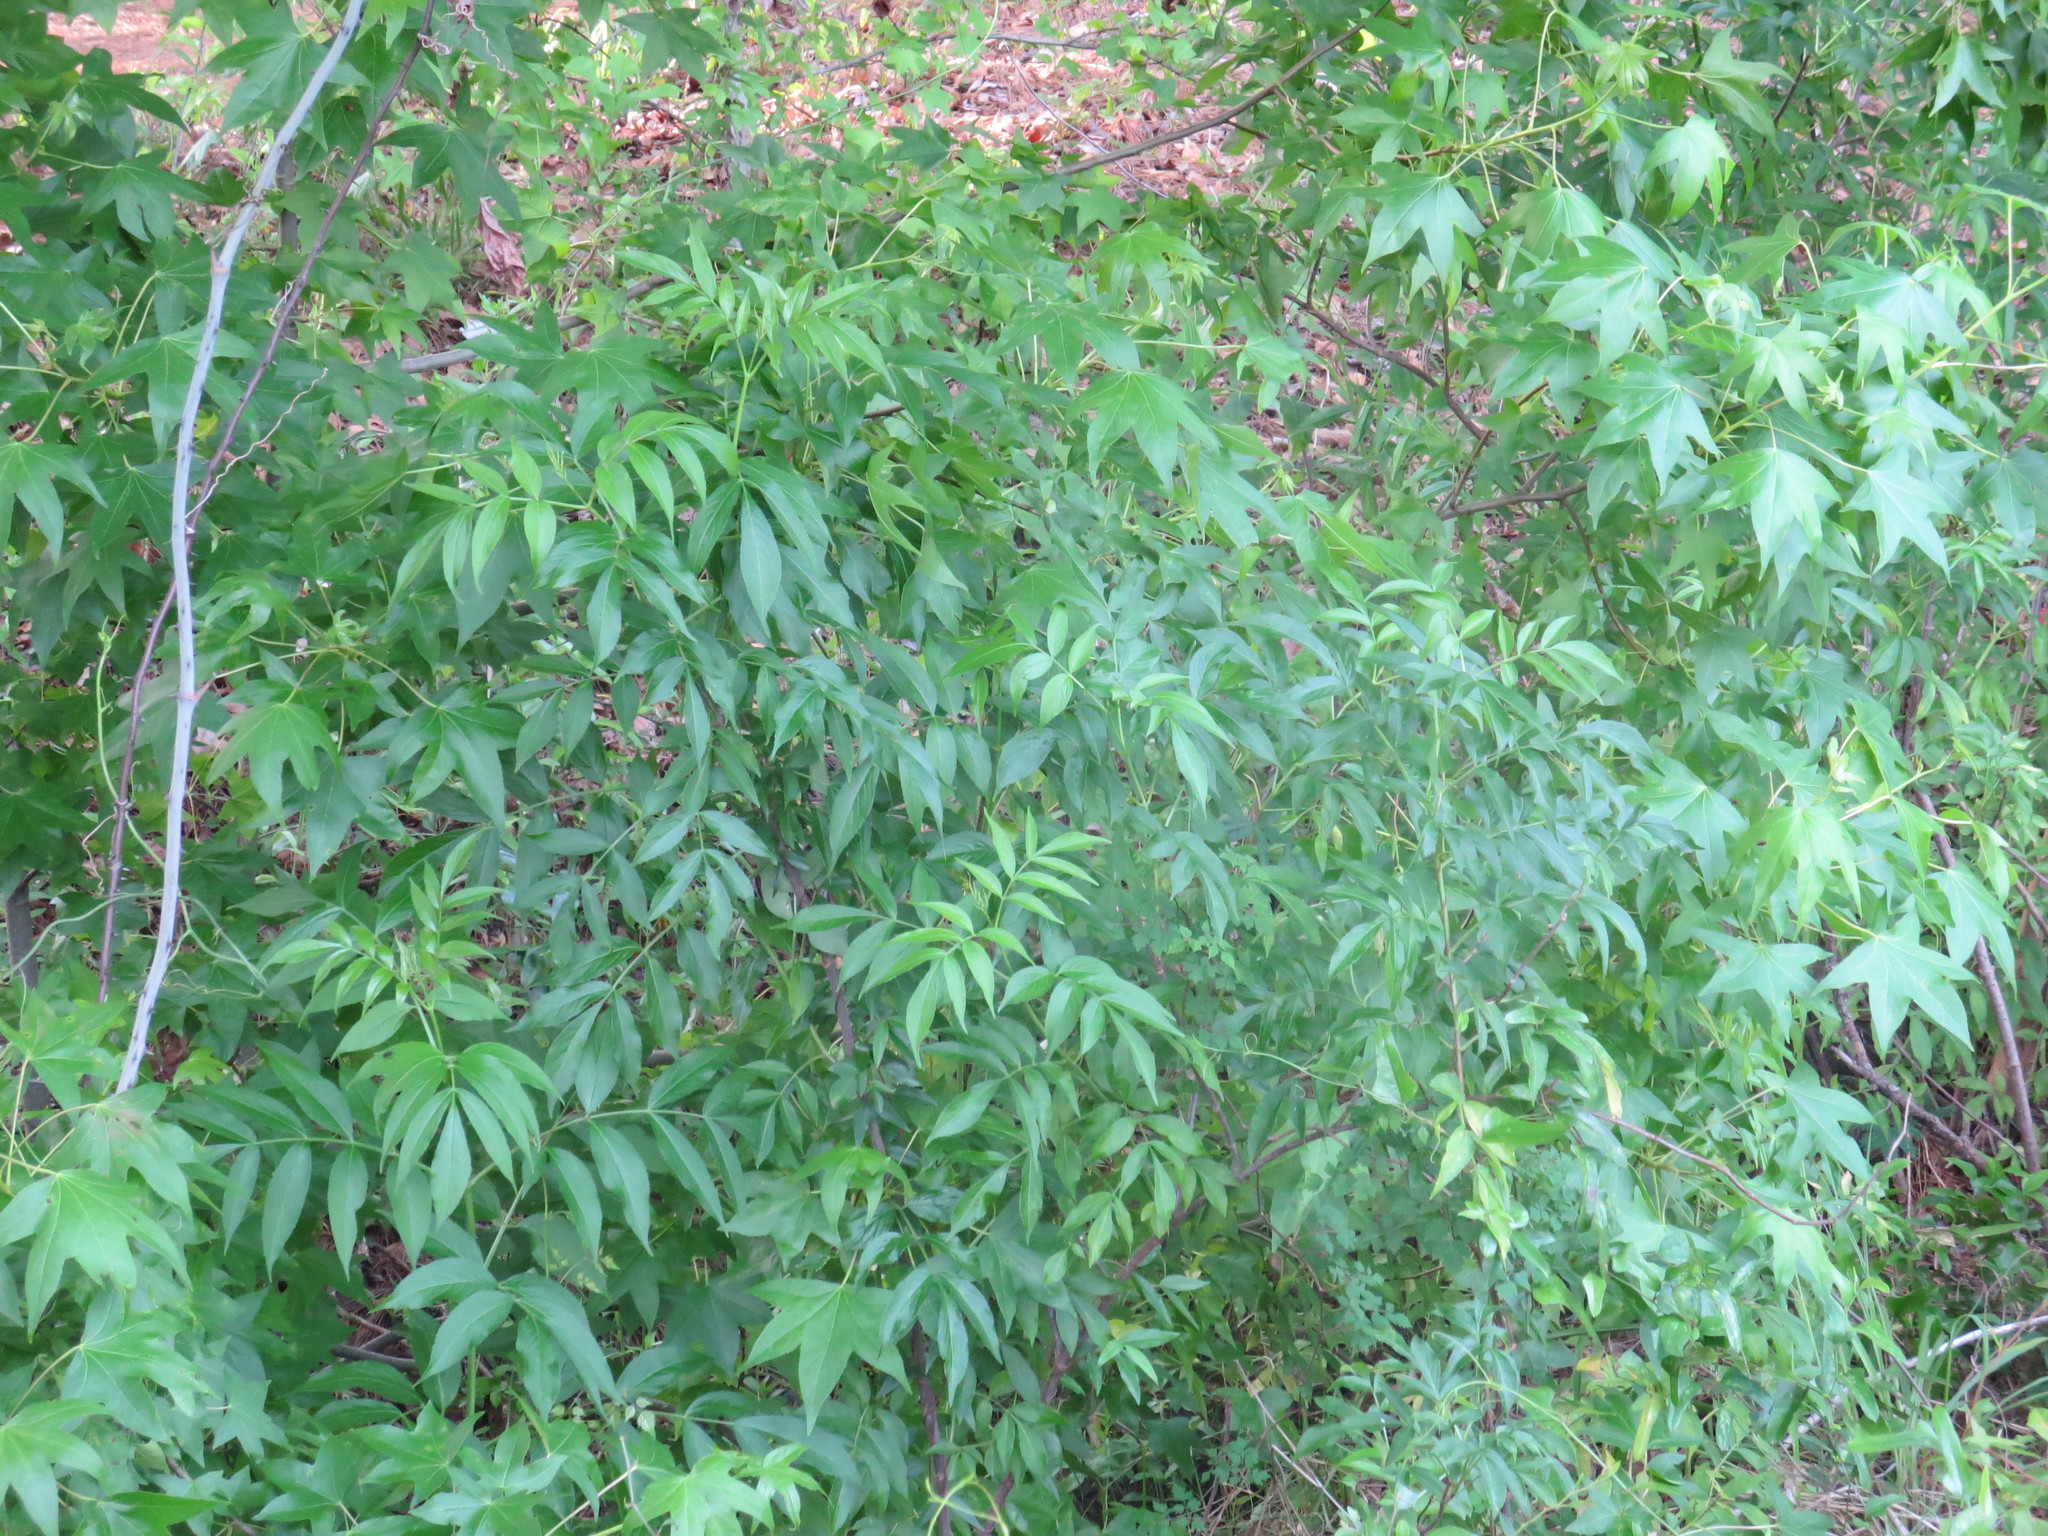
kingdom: Plantae
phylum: Tracheophyta
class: Magnoliopsida
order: Dipsacales
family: Viburnaceae
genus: Sambucus
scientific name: Sambucus canadensis
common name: American elder
